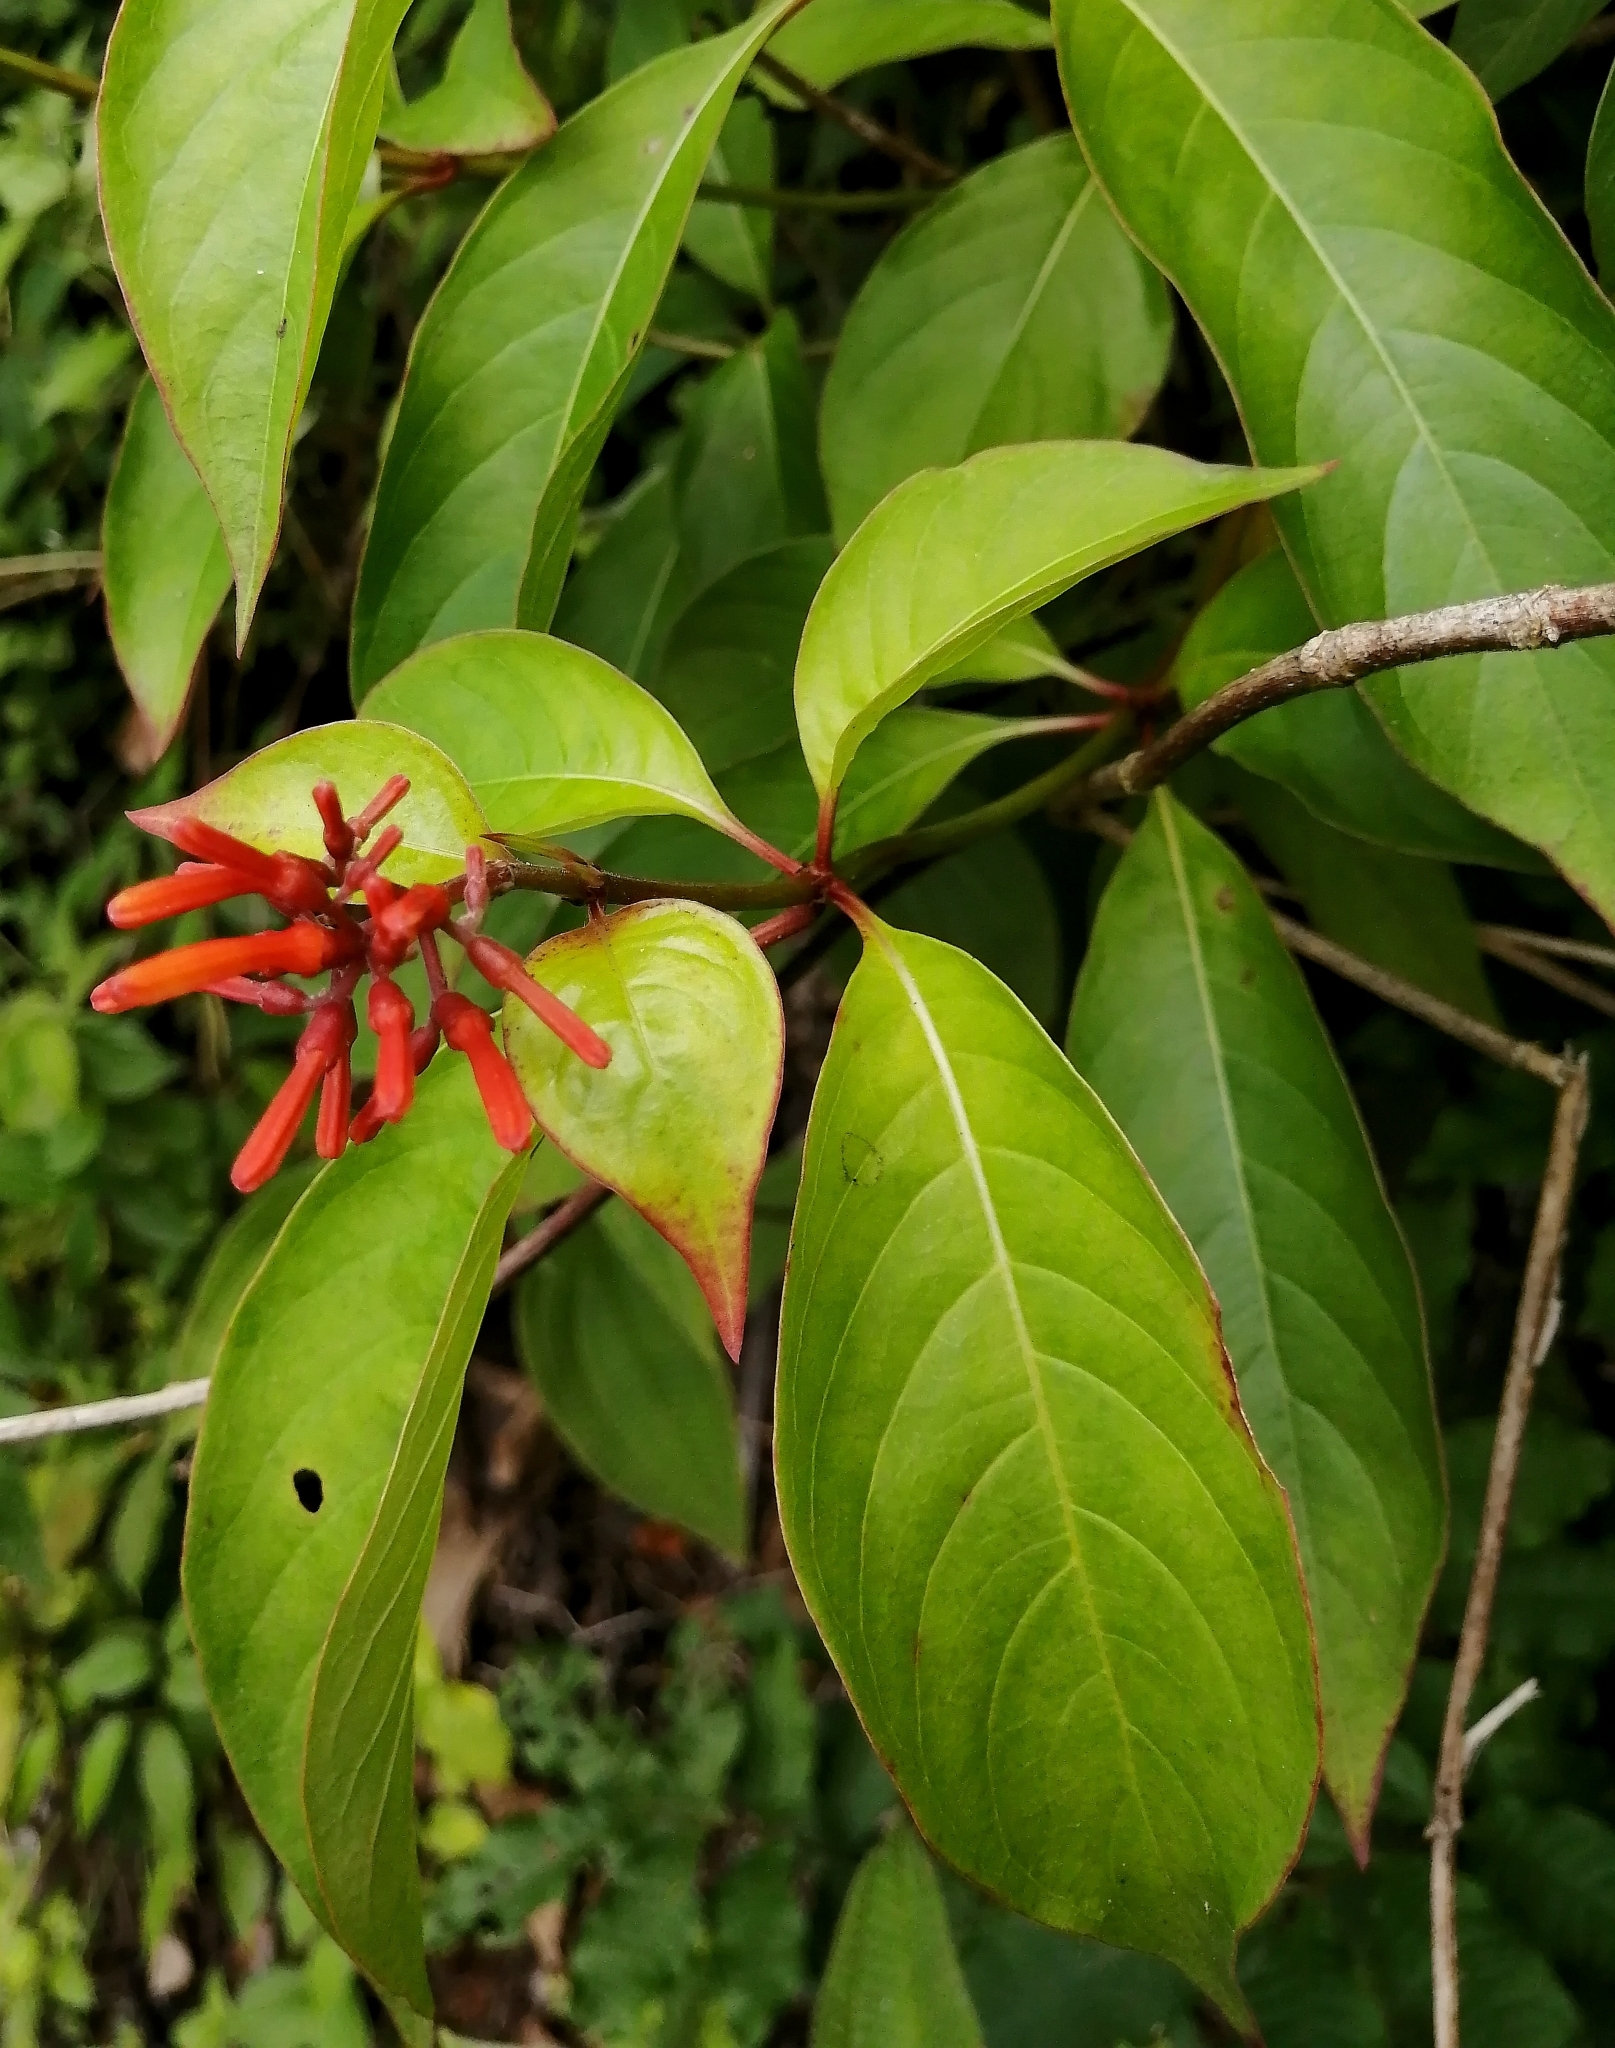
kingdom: Plantae
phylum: Tracheophyta
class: Magnoliopsida
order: Gentianales
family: Rubiaceae
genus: Hamelia
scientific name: Hamelia patens
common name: Redhead
